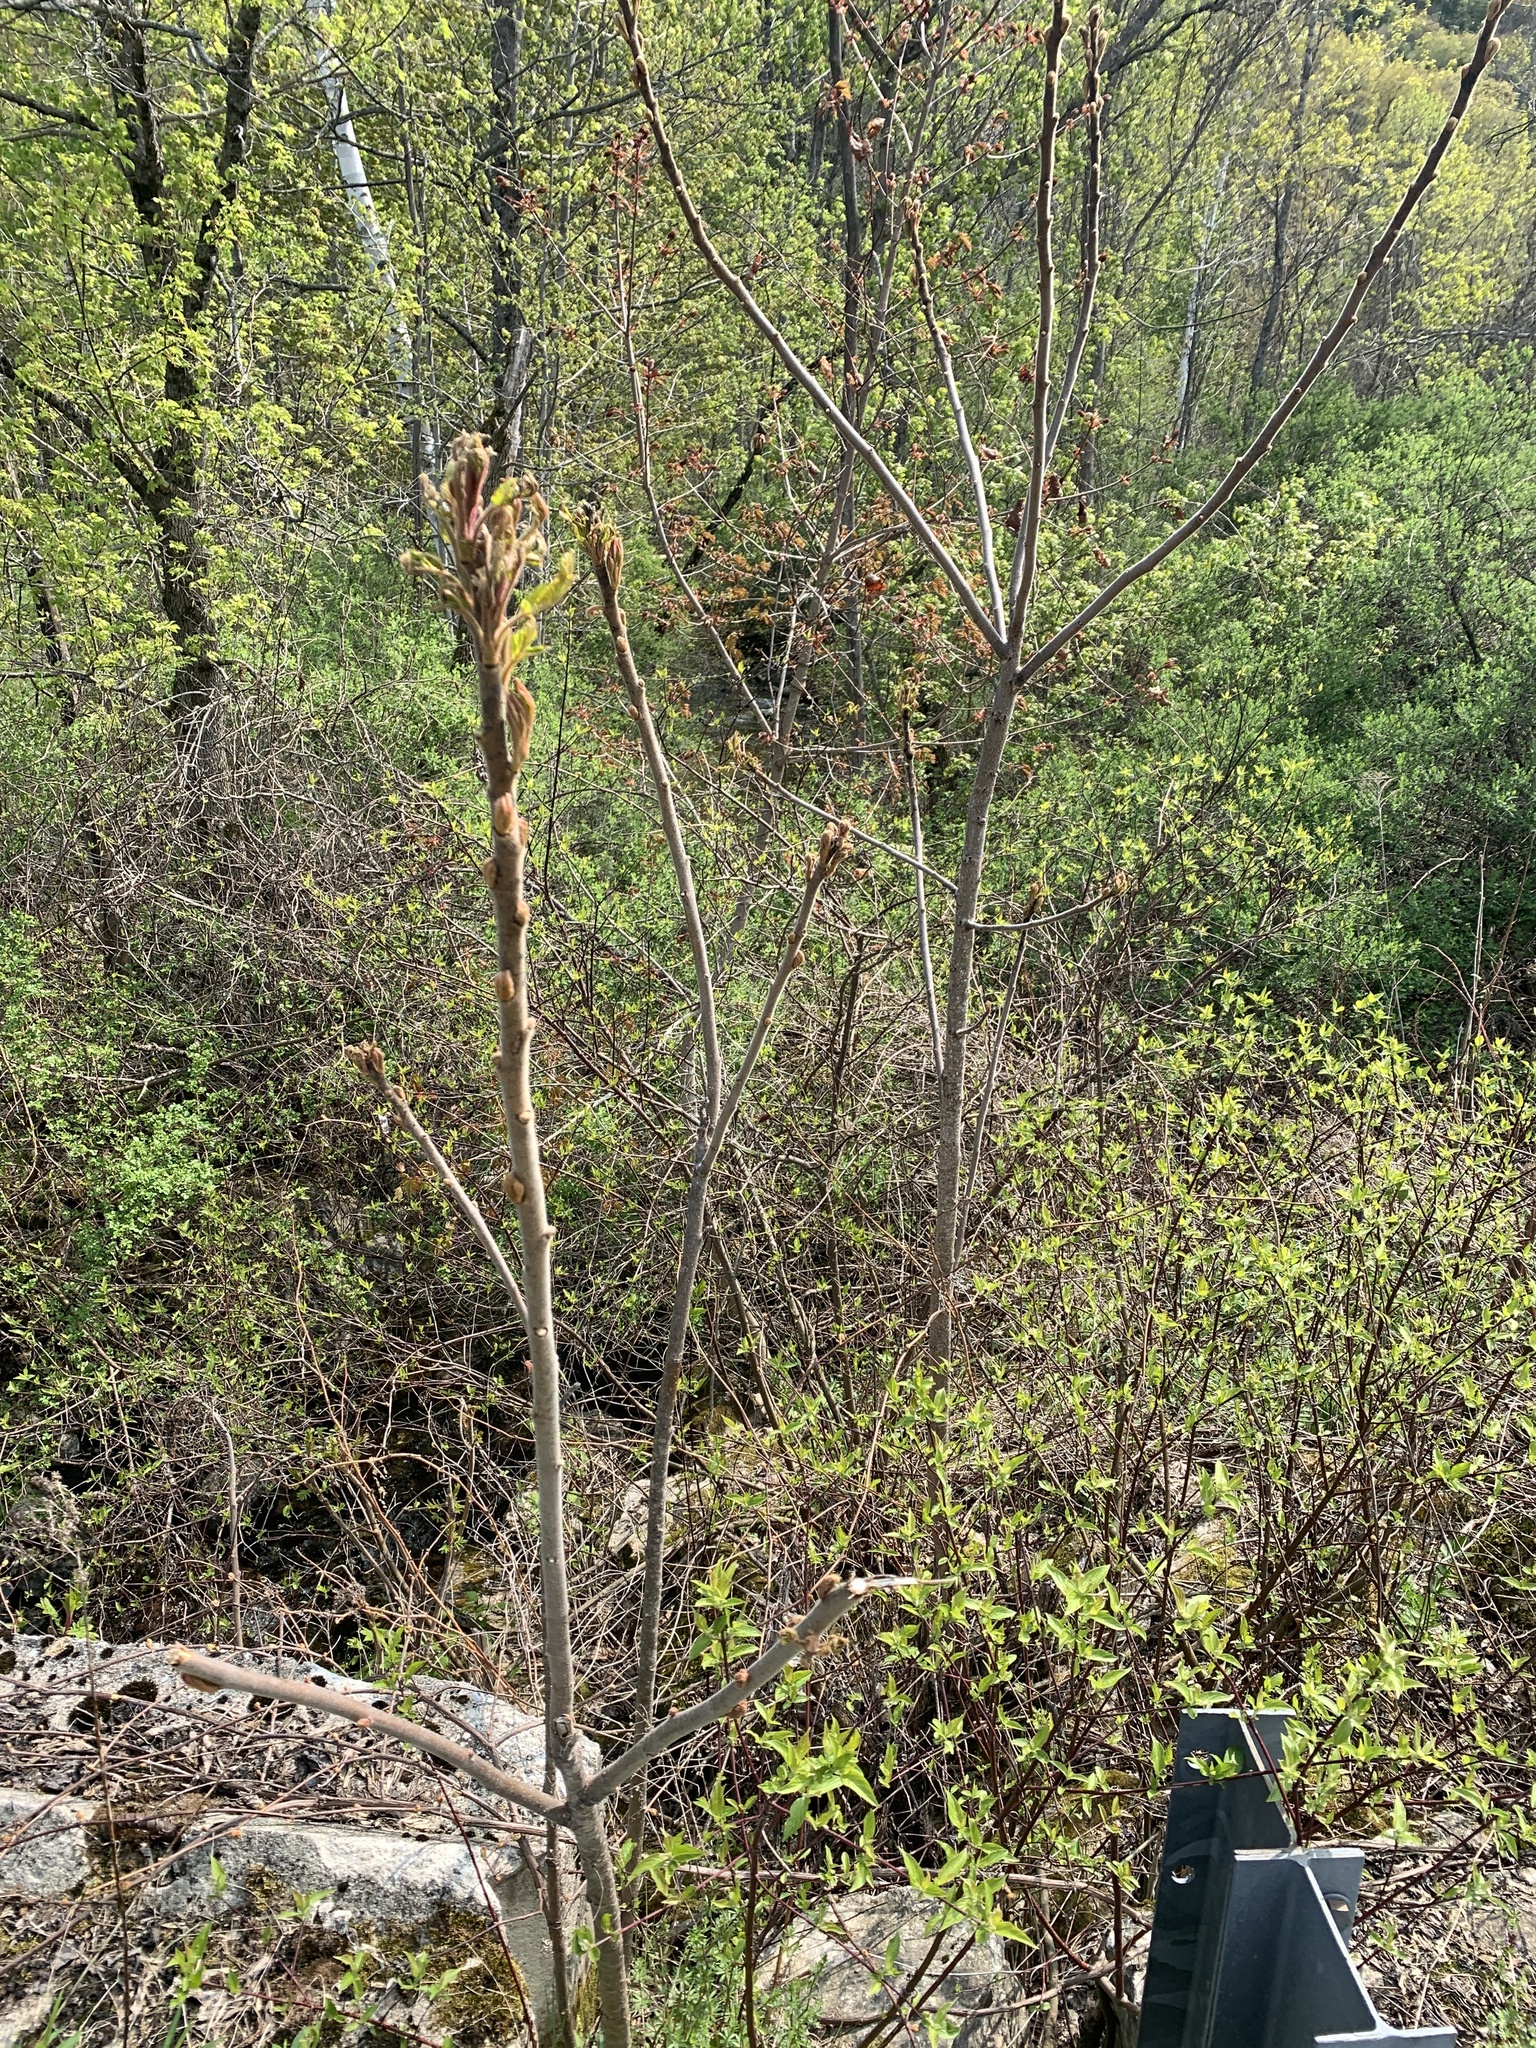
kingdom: Plantae
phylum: Tracheophyta
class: Magnoliopsida
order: Sapindales
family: Anacardiaceae
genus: Rhus
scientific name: Rhus typhina
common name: Staghorn sumac
